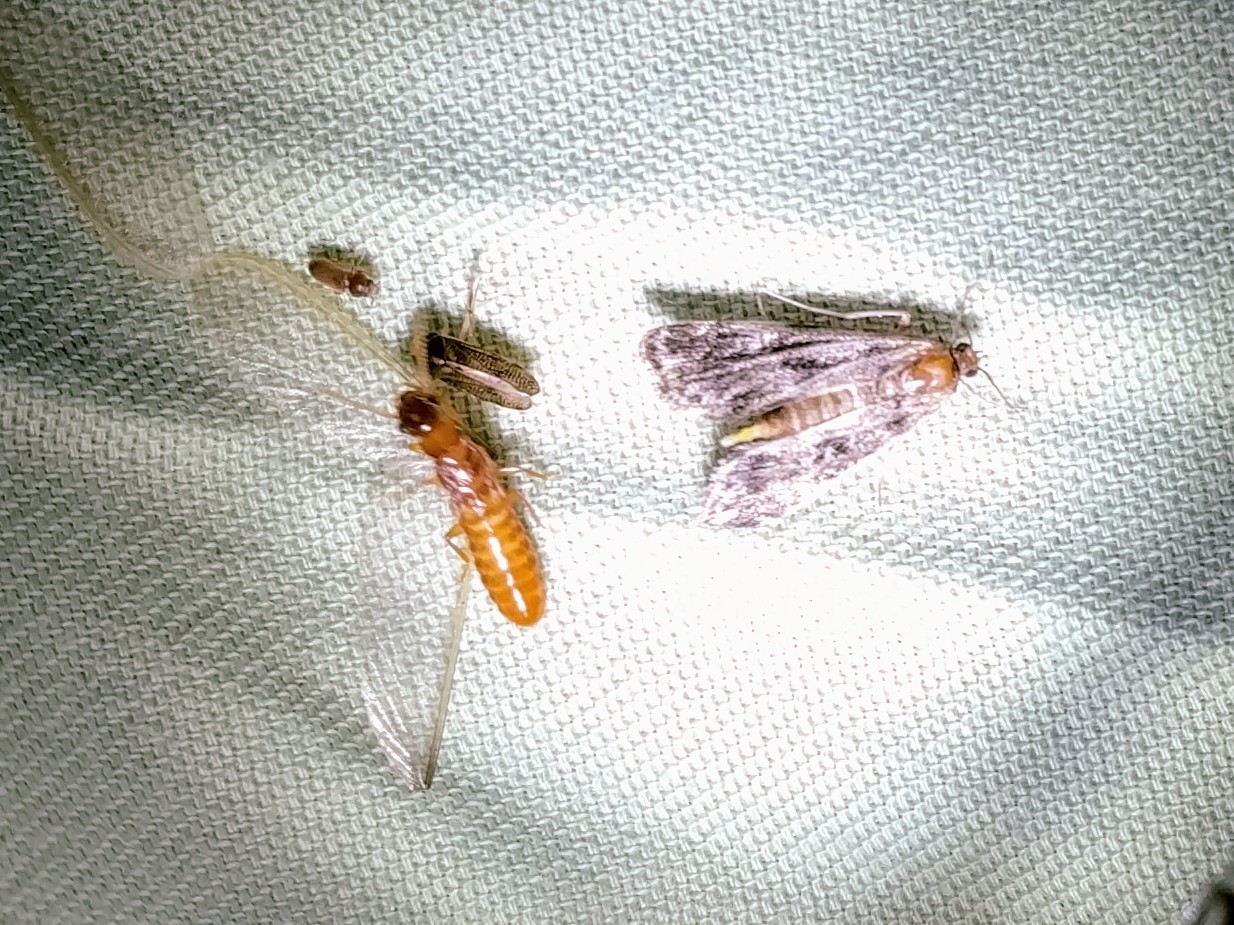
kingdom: Animalia
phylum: Arthropoda
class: Insecta
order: Blattodea
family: Rhinotermitidae
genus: Coptotermes
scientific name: Coptotermes formosanus
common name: Formosan termite
